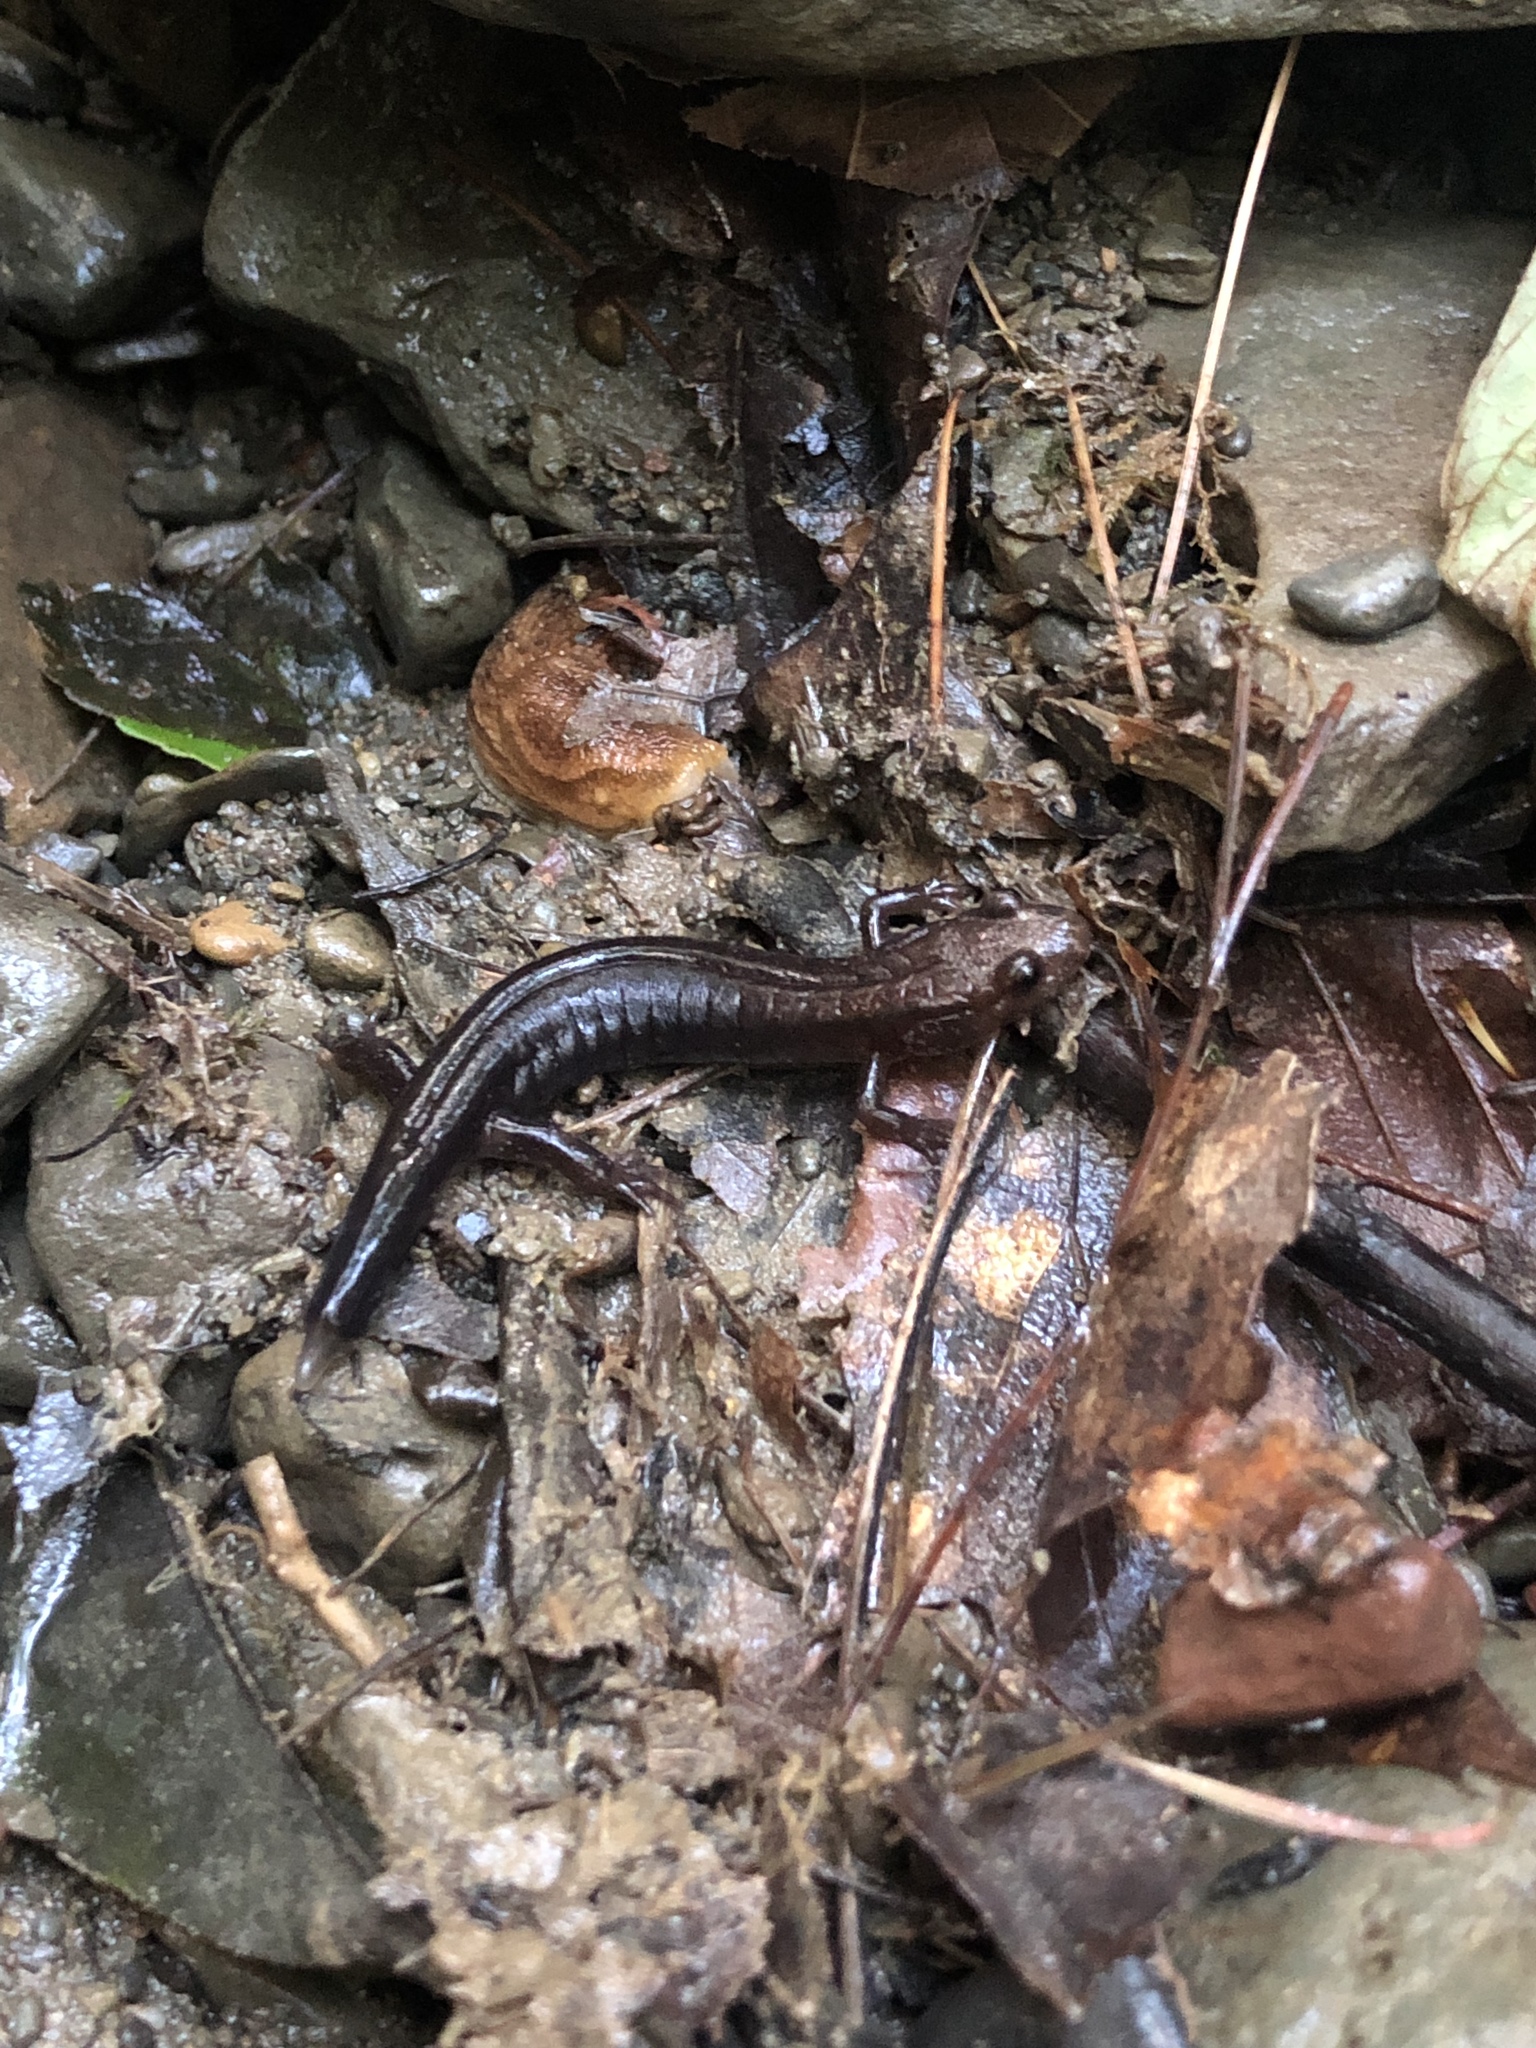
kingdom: Animalia
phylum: Chordata
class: Amphibia
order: Caudata
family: Plethodontidae
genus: Desmognathus
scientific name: Desmognathus ochrophaeus
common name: Allegheny mountain dusky salamander
